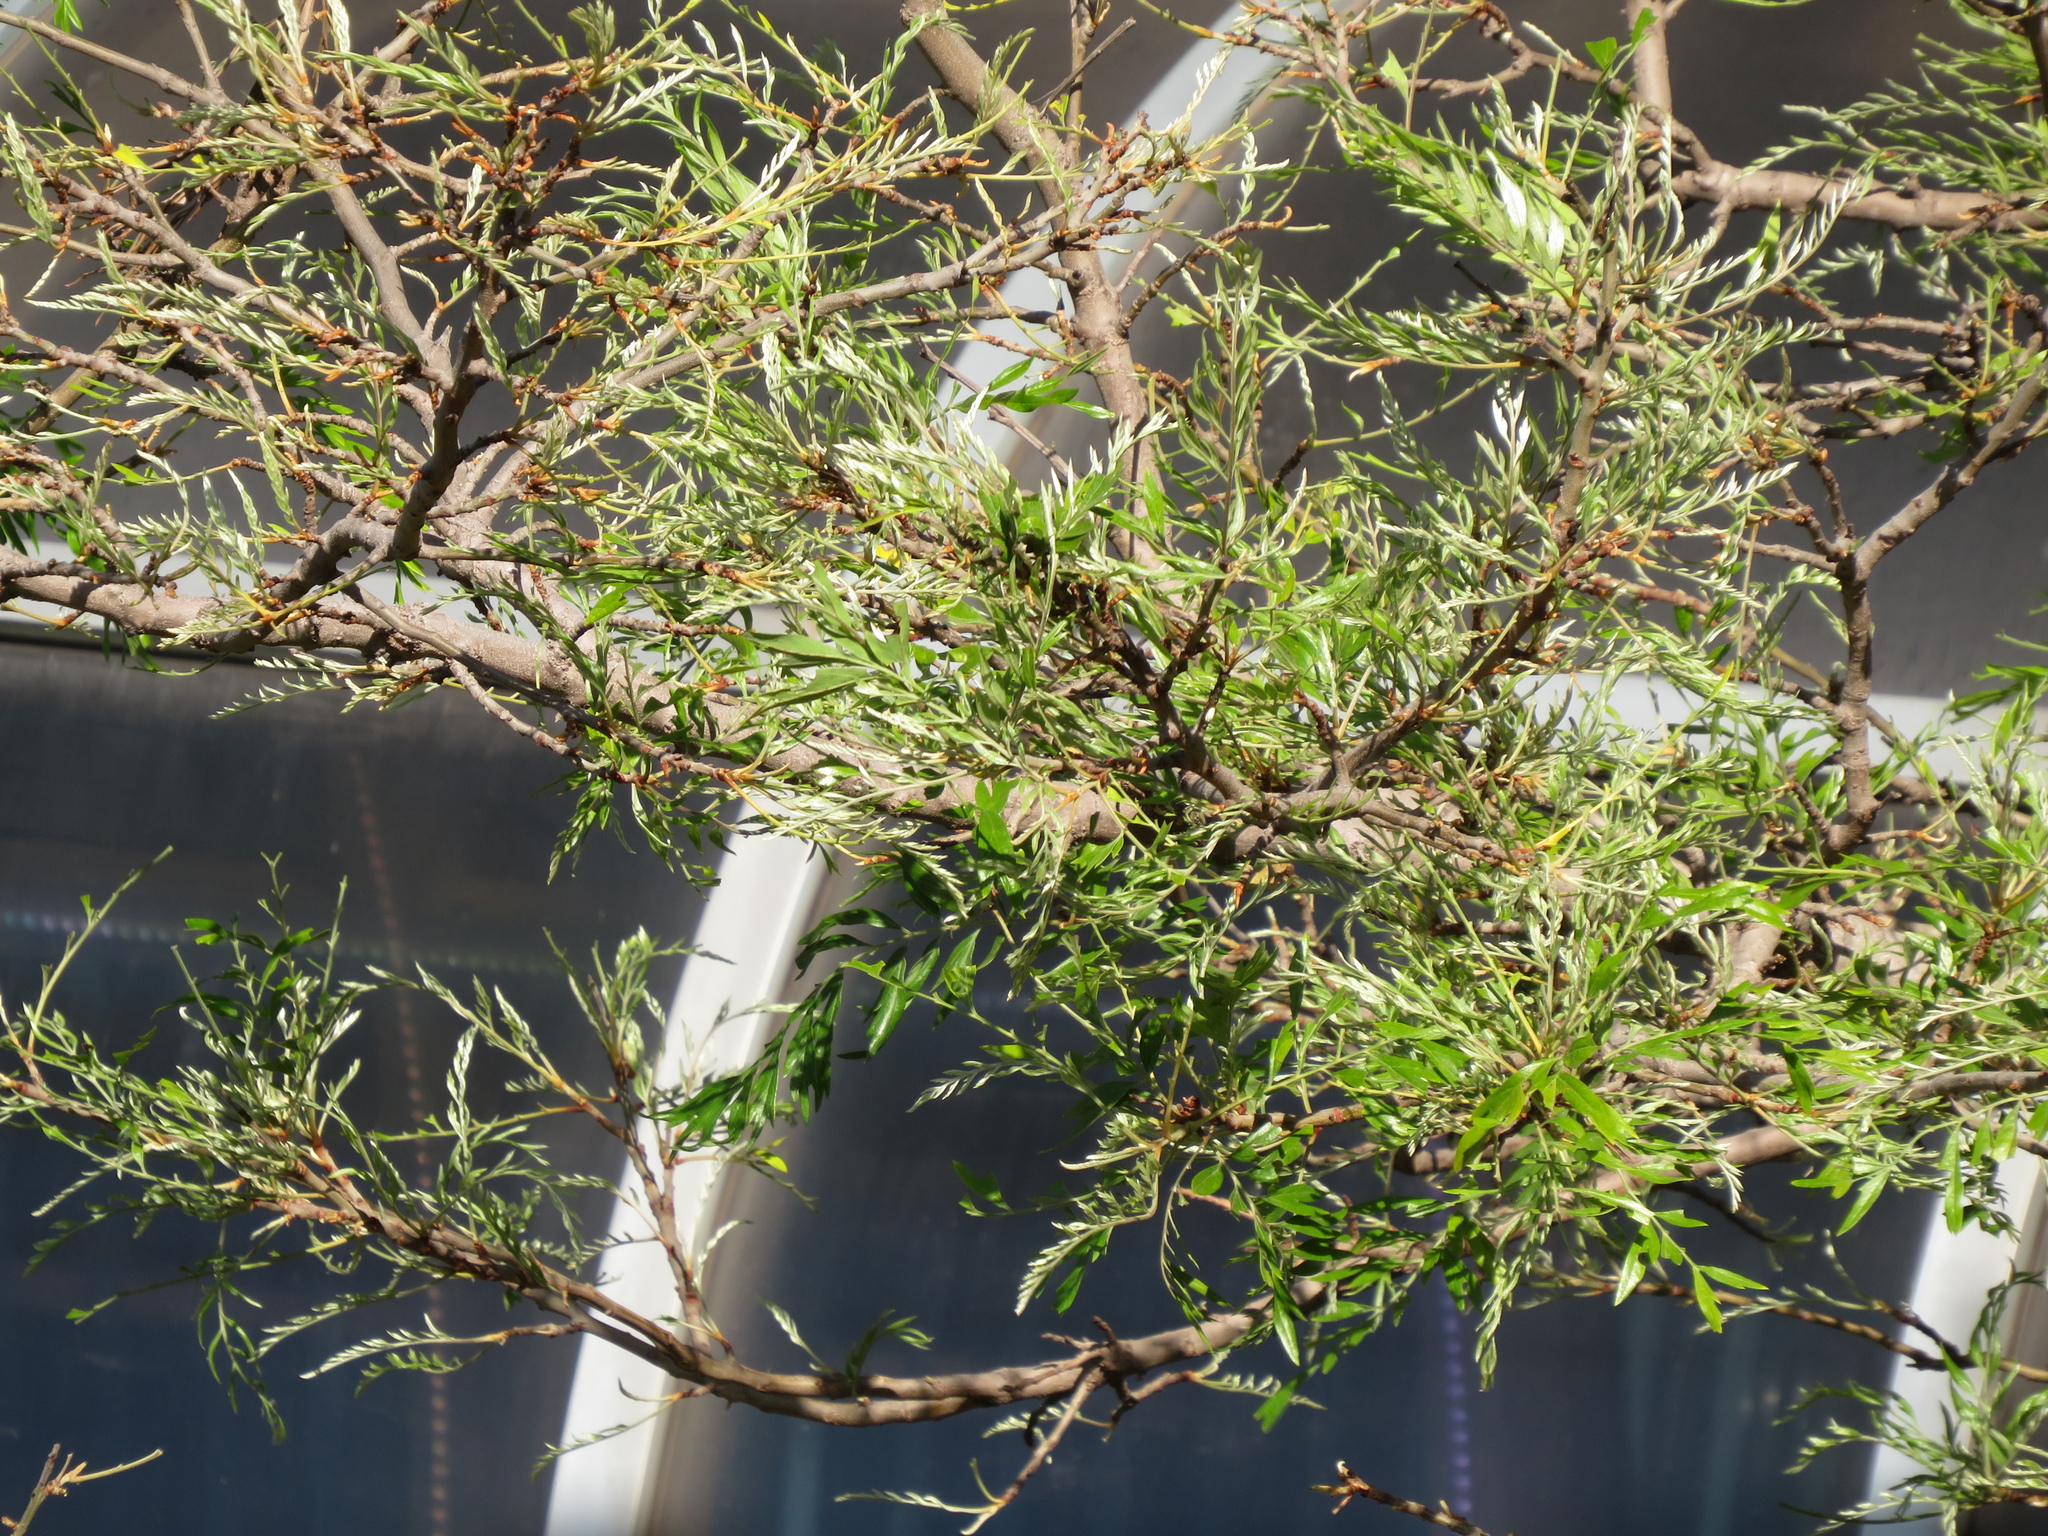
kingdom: Plantae
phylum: Tracheophyta
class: Magnoliopsida
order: Proteales
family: Proteaceae
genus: Grevillea
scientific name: Grevillea robusta
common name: Silkoak
